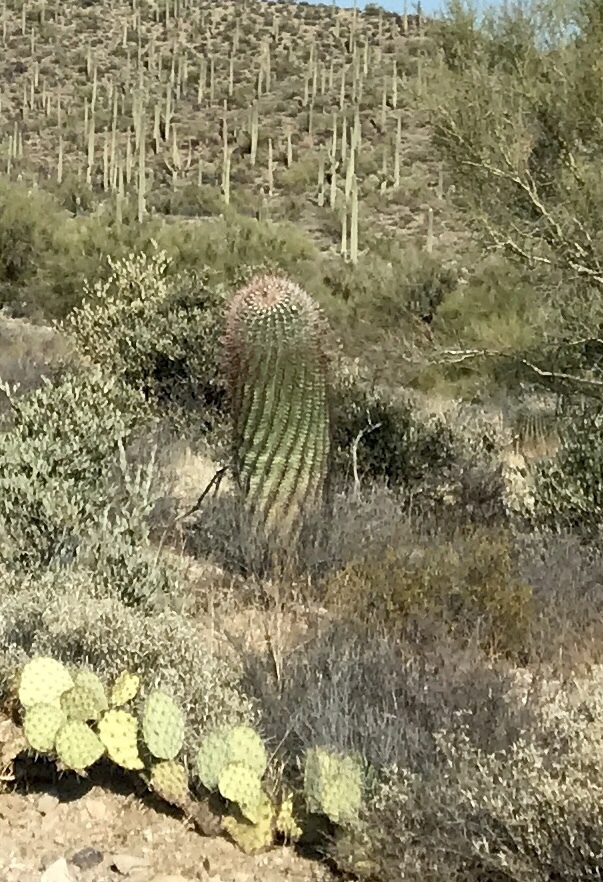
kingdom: Plantae
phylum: Tracheophyta
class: Magnoliopsida
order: Caryophyllales
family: Cactaceae
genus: Ferocactus
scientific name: Ferocactus wislizeni
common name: Candy barrel cactus
